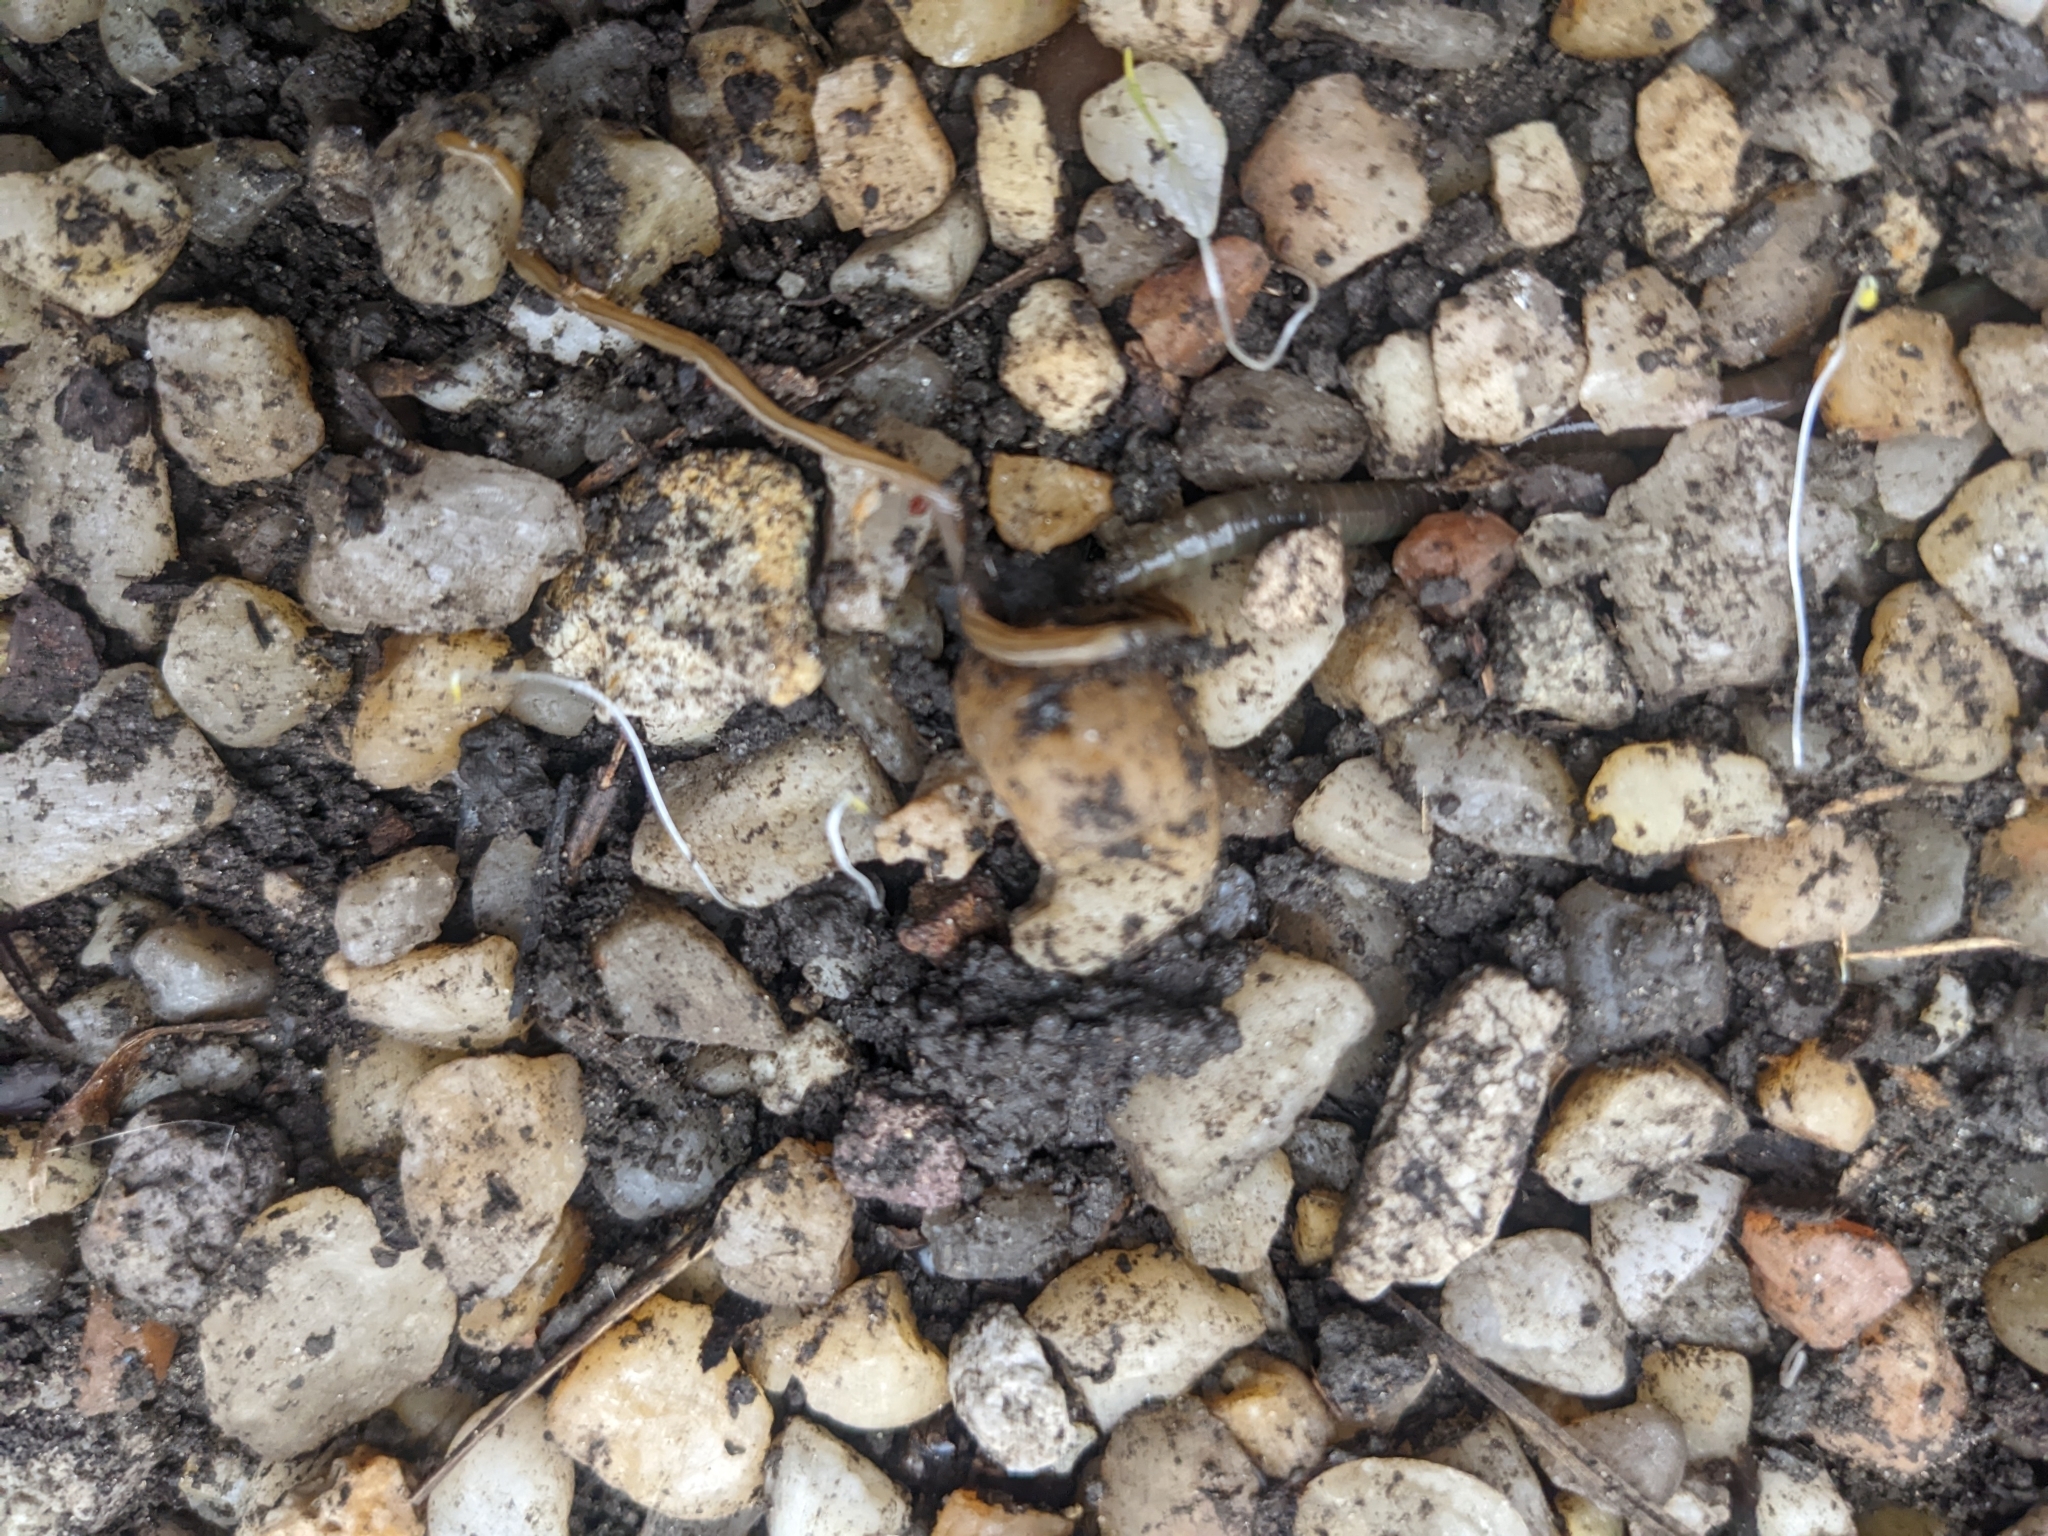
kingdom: Animalia
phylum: Platyhelminthes
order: Tricladida
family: Geoplanidae
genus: Bipalium
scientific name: Bipalium kewense
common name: Hammerhead flatworm
